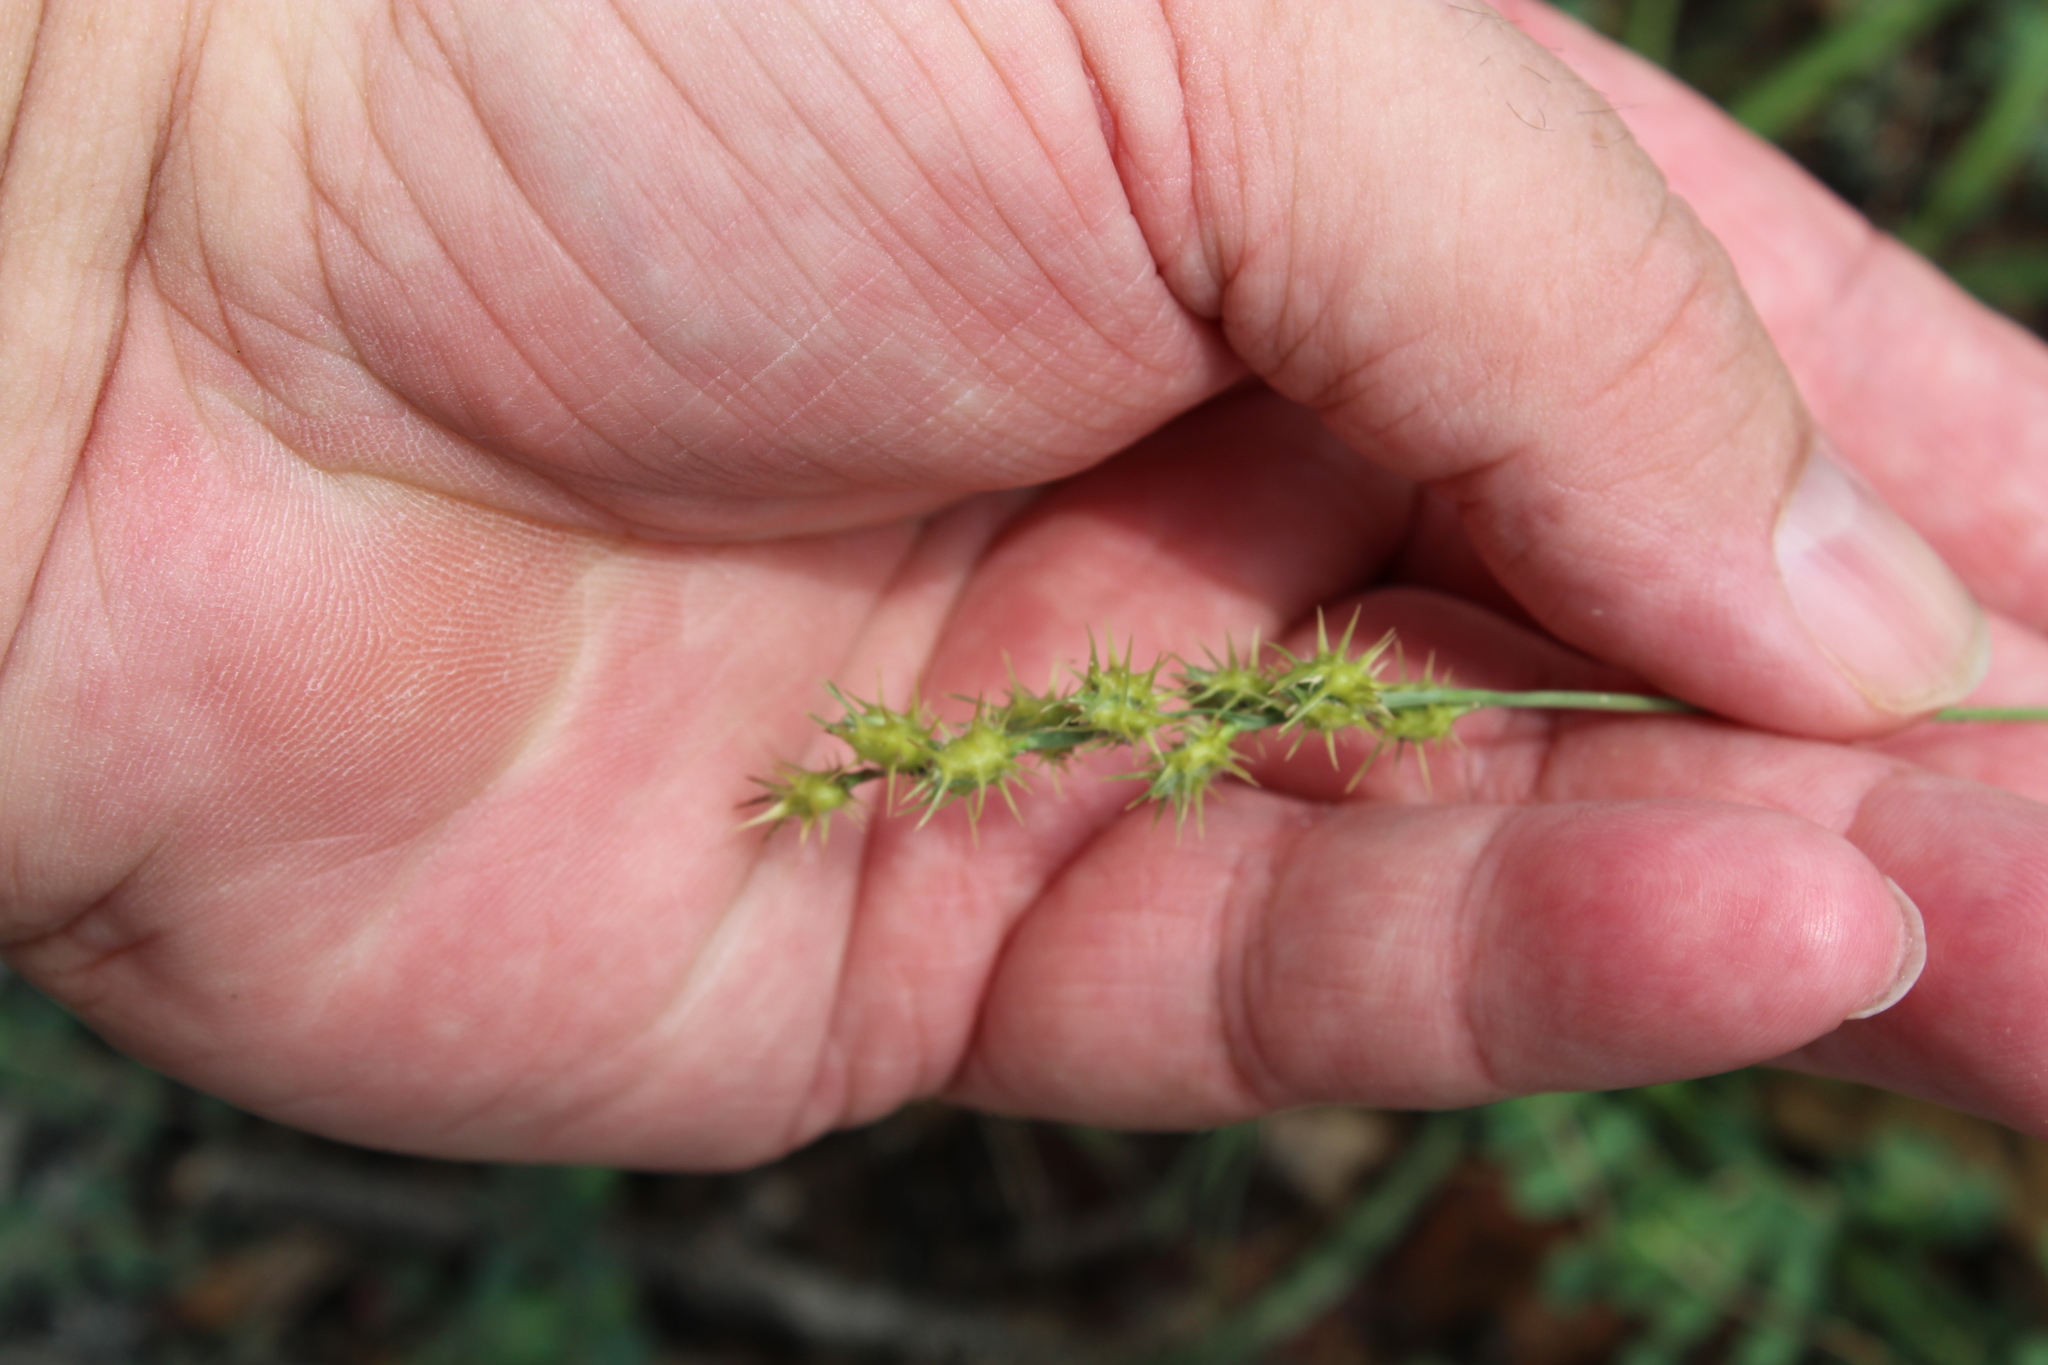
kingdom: Plantae
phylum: Tracheophyta
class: Liliopsida
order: Poales
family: Poaceae
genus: Cenchrus
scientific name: Cenchrus spinifex
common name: Coast sandbur
